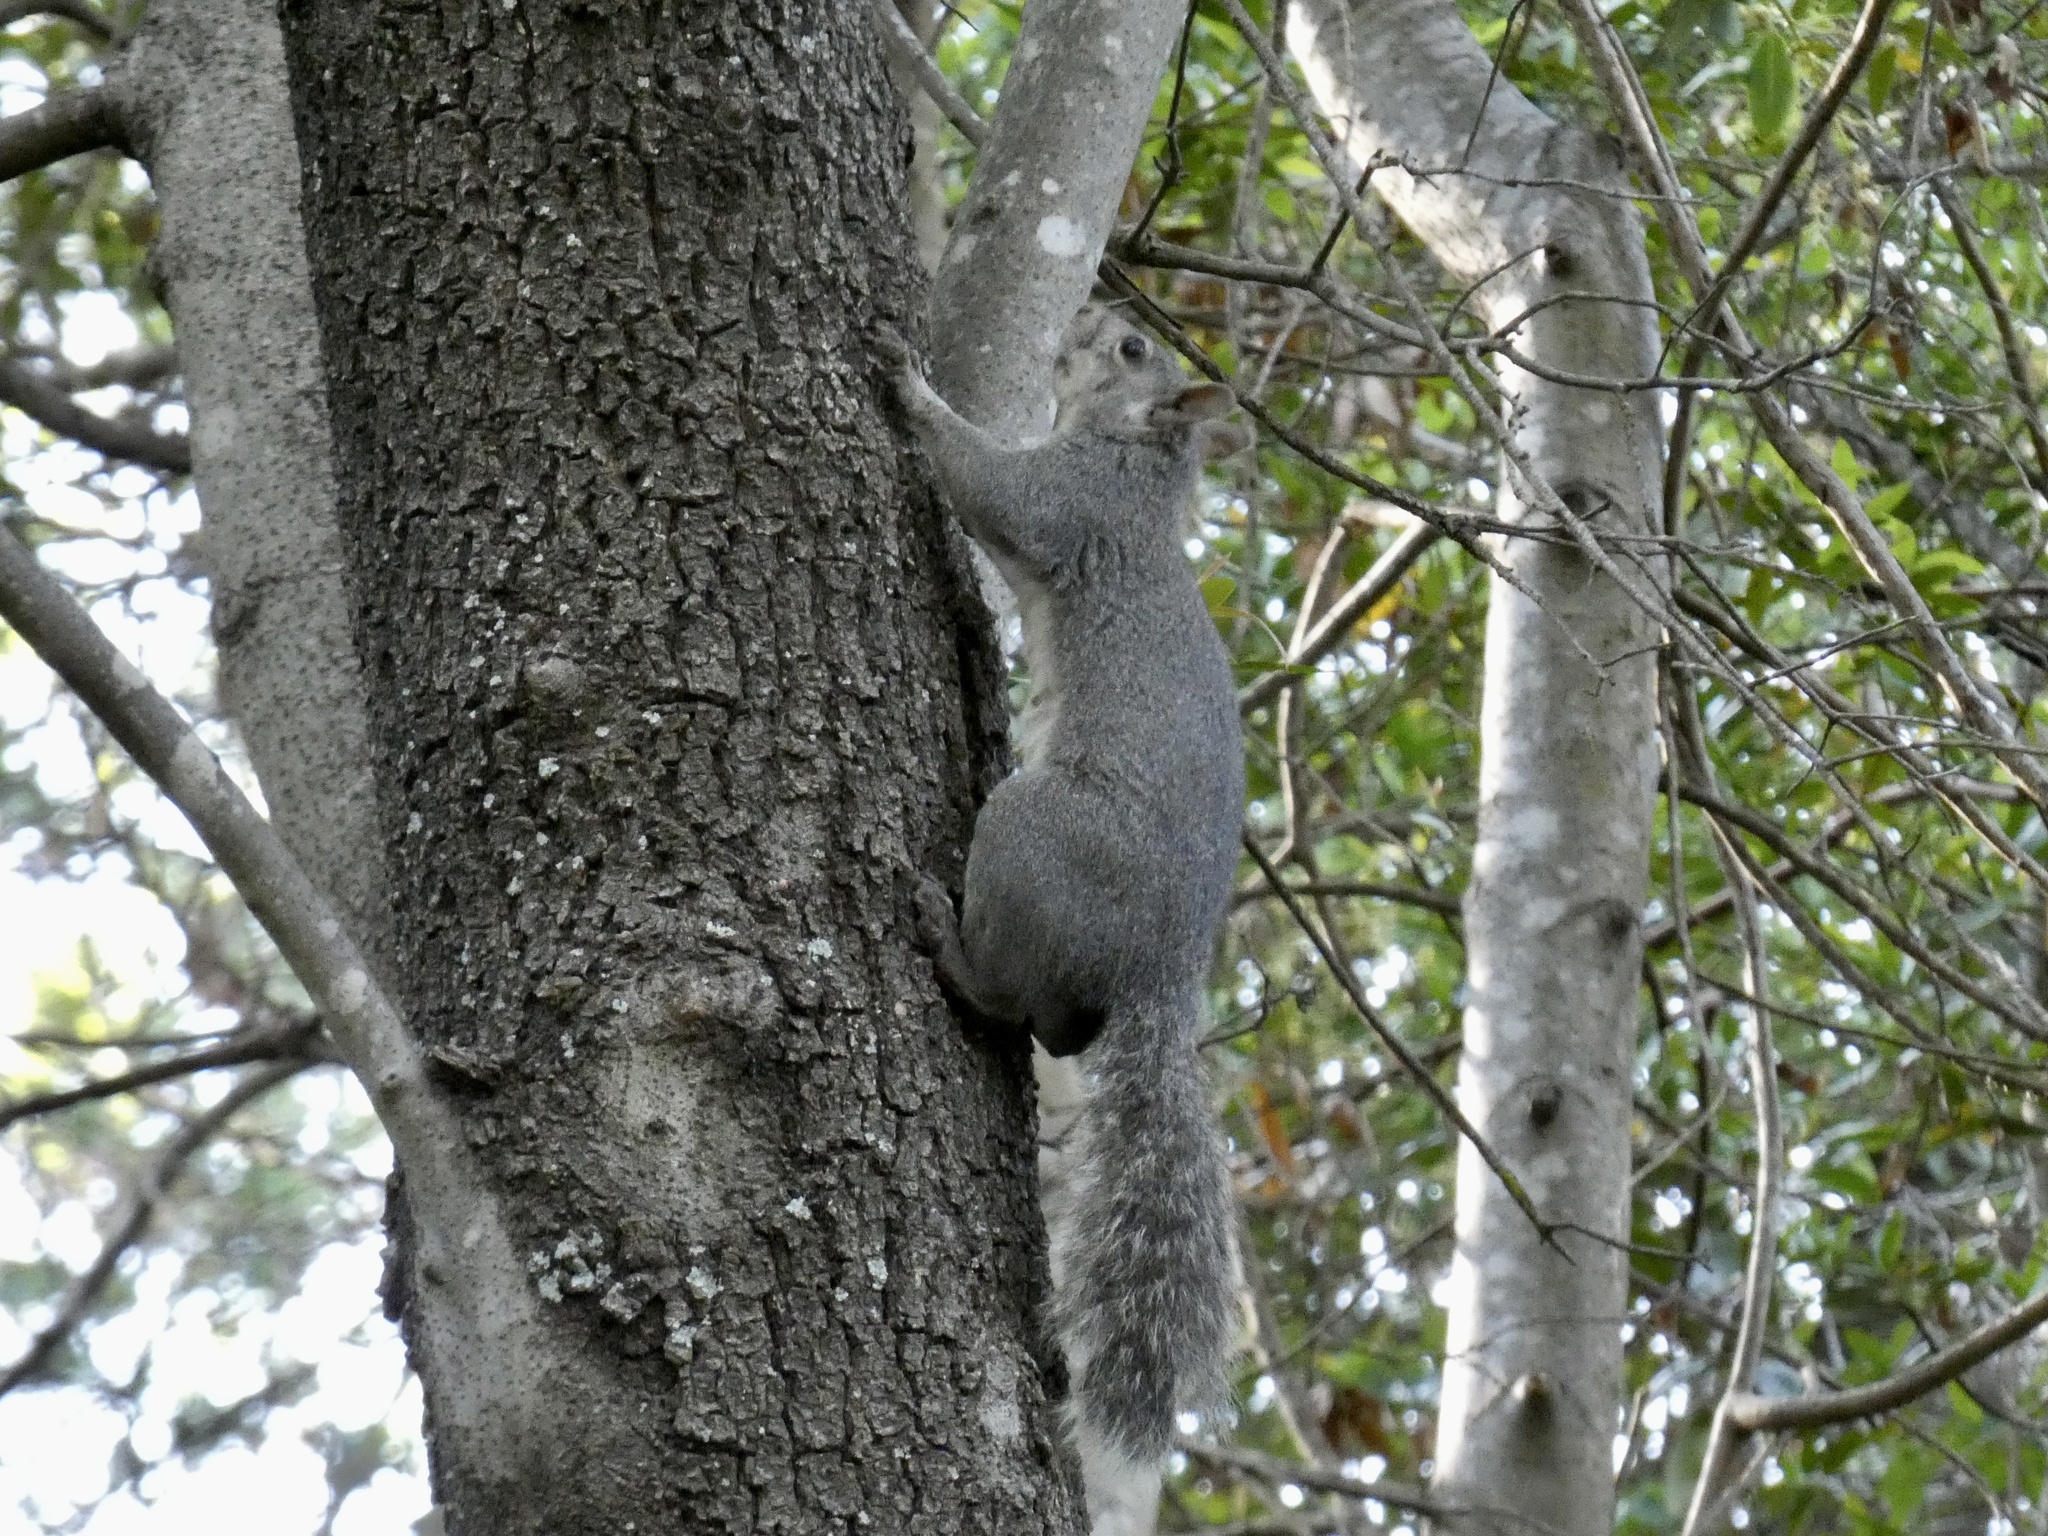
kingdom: Animalia
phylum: Chordata
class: Mammalia
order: Rodentia
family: Sciuridae
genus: Sciurus
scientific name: Sciurus griseus
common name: Western gray squirrel
